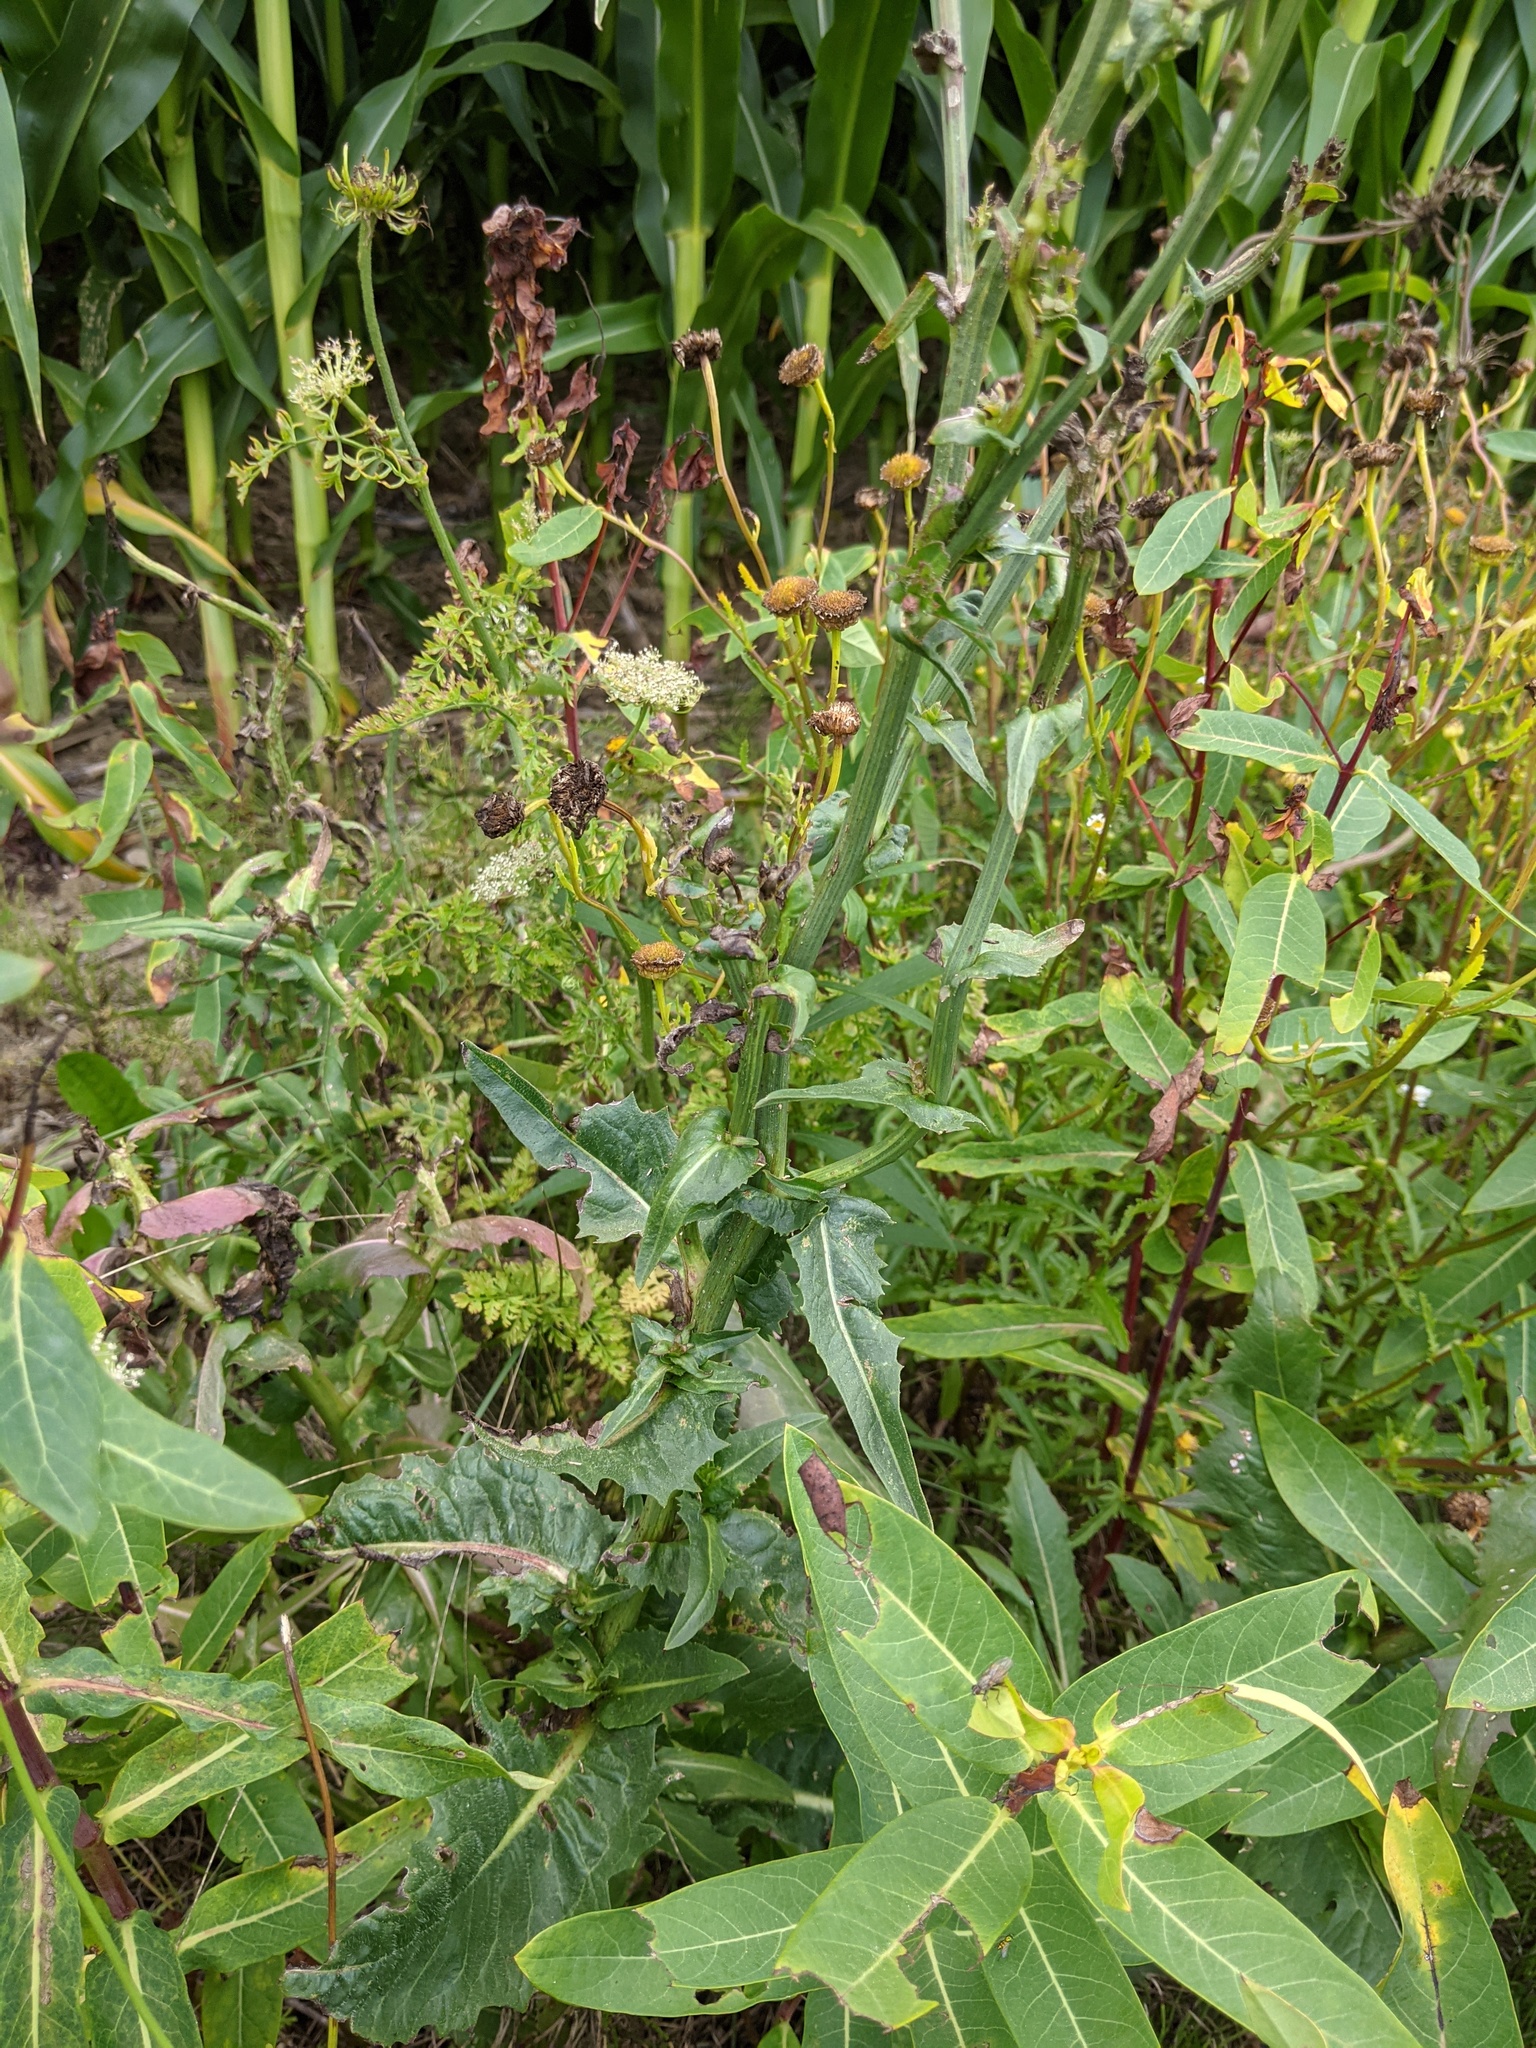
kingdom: Plantae
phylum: Tracheophyta
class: Magnoliopsida
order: Asterales
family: Asteraceae
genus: Cichorium
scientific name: Cichorium intybus
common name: Chicory
